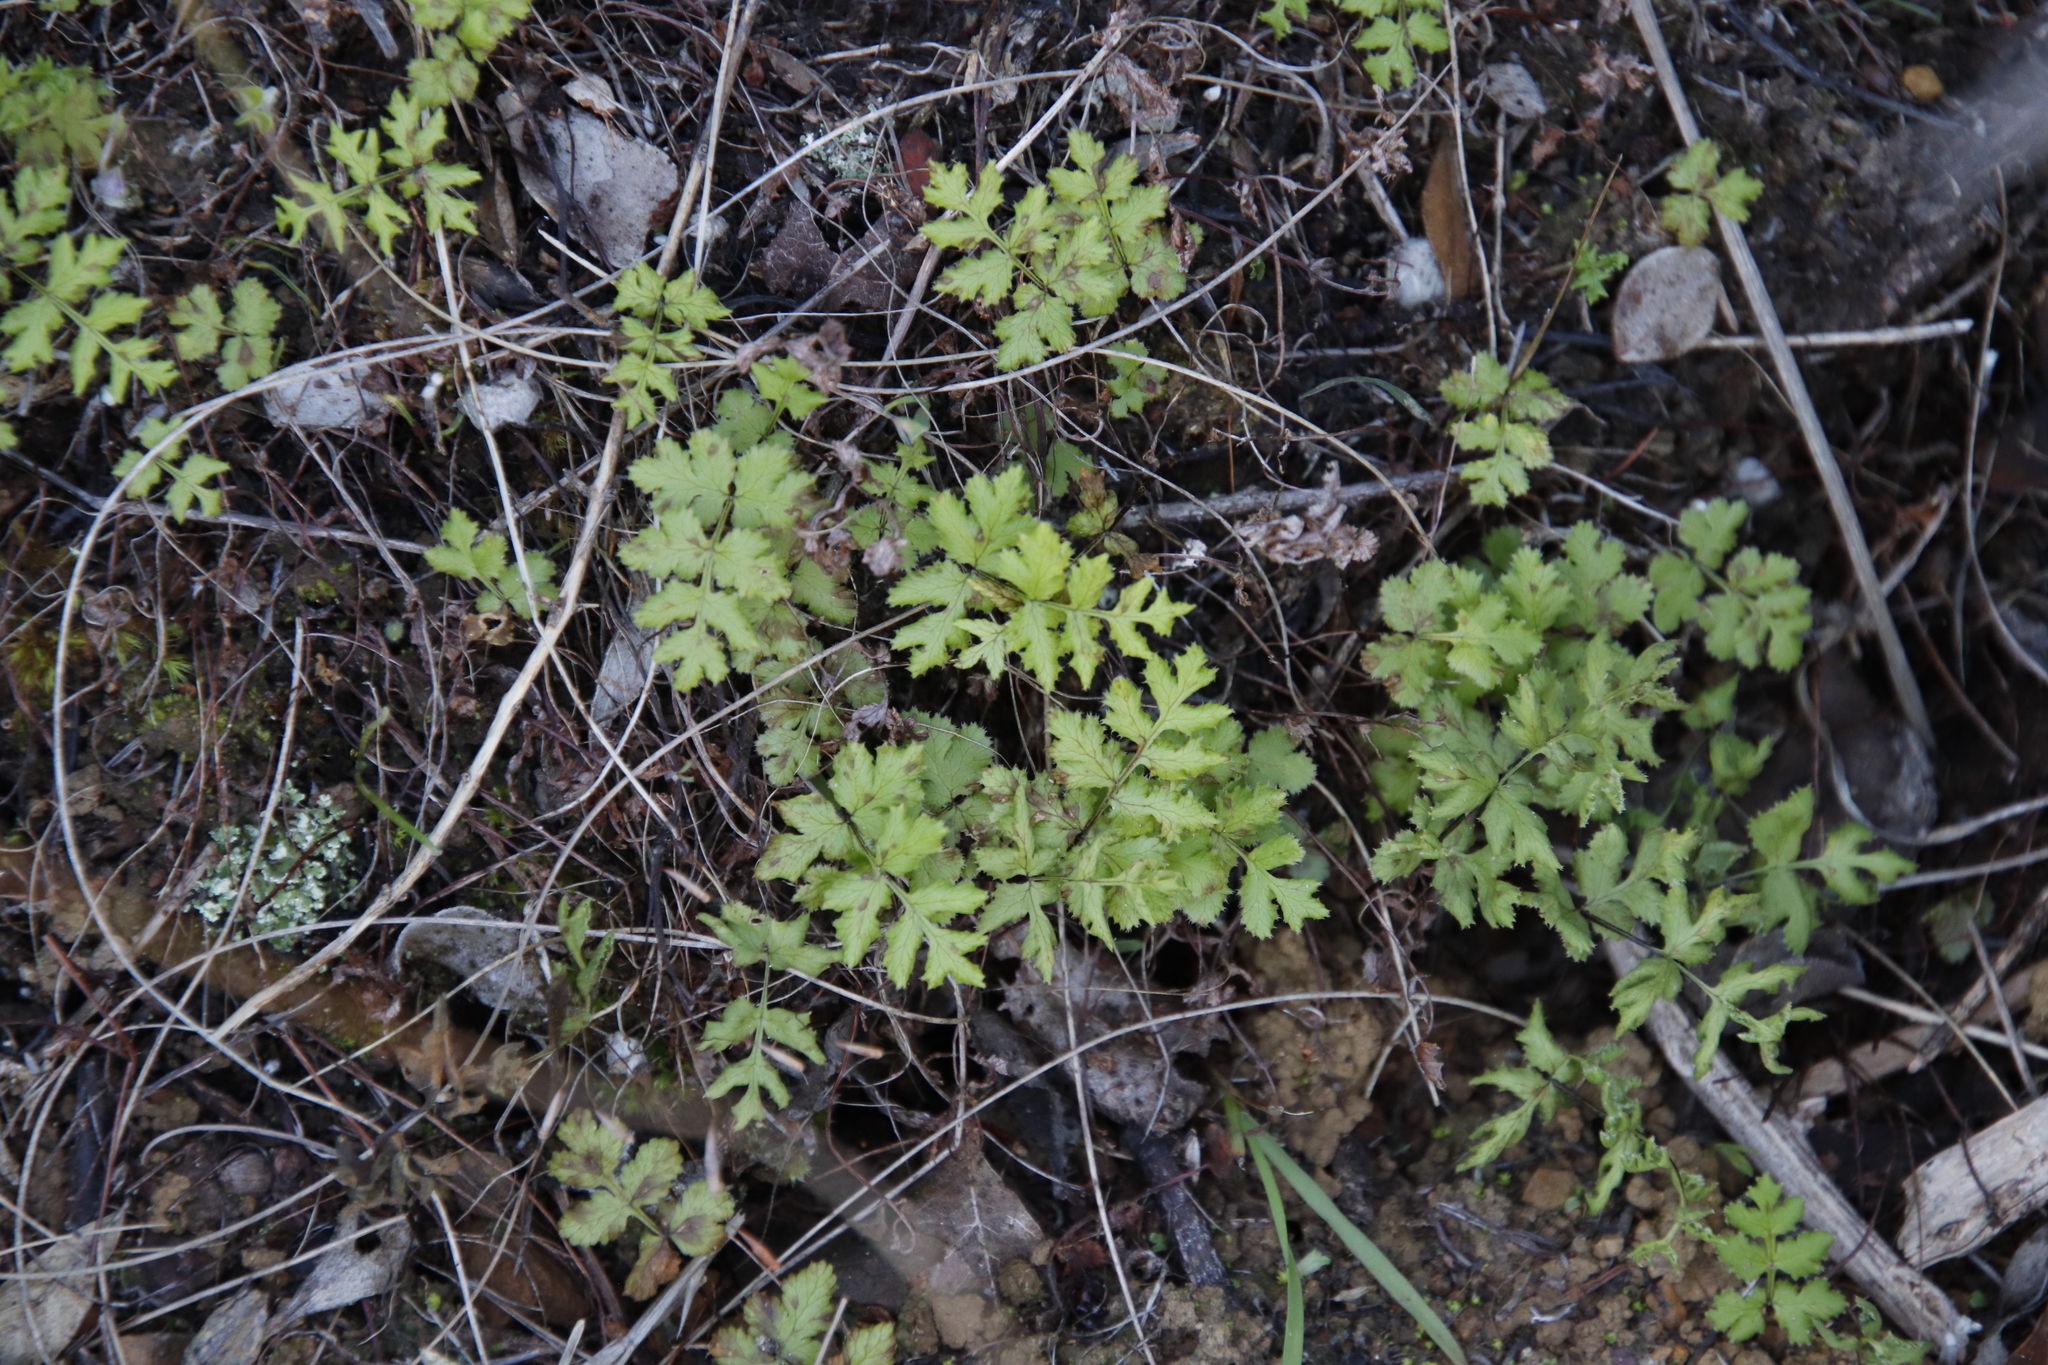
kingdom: Plantae
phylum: Tracheophyta
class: Polypodiopsida
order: Polypodiales
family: Pteridaceae
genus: Cheilanthes
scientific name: Cheilanthes capensis
